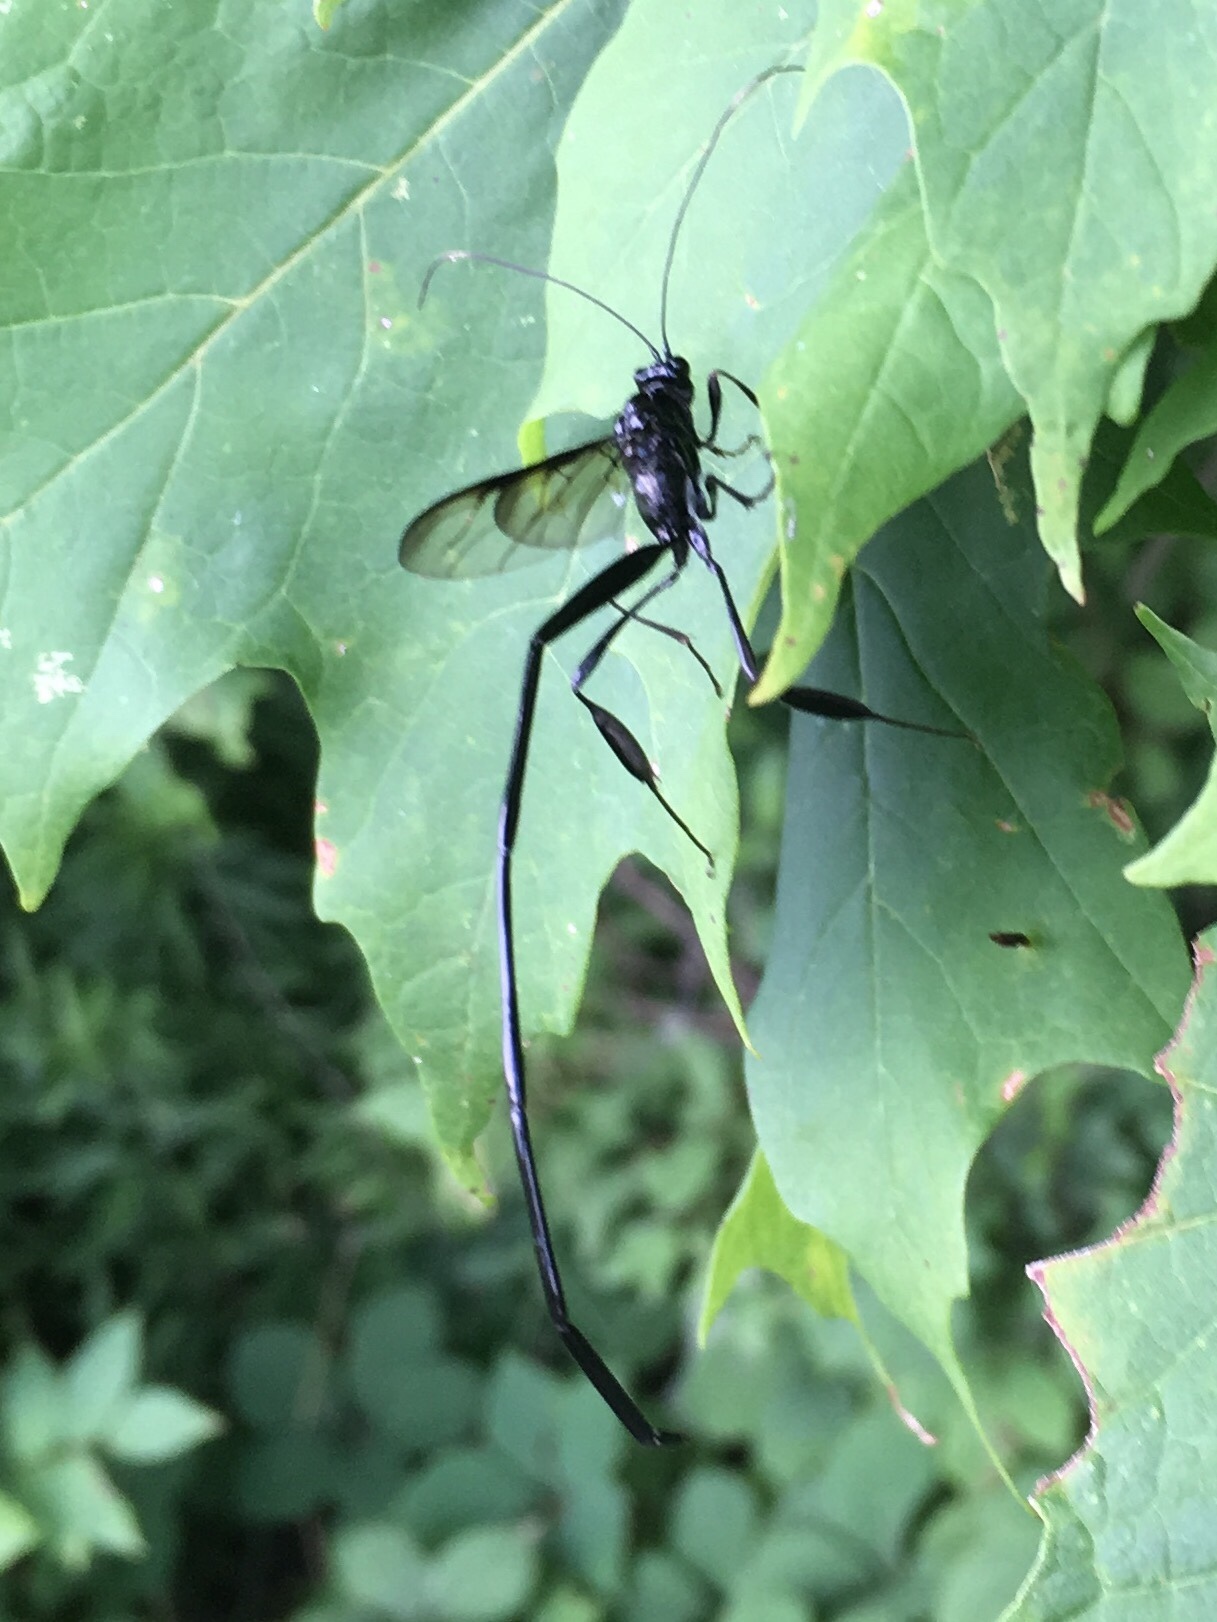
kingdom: Animalia
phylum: Arthropoda
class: Insecta
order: Hymenoptera
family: Pelecinidae
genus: Pelecinus
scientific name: Pelecinus polyturator
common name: American pelecinid wasp
